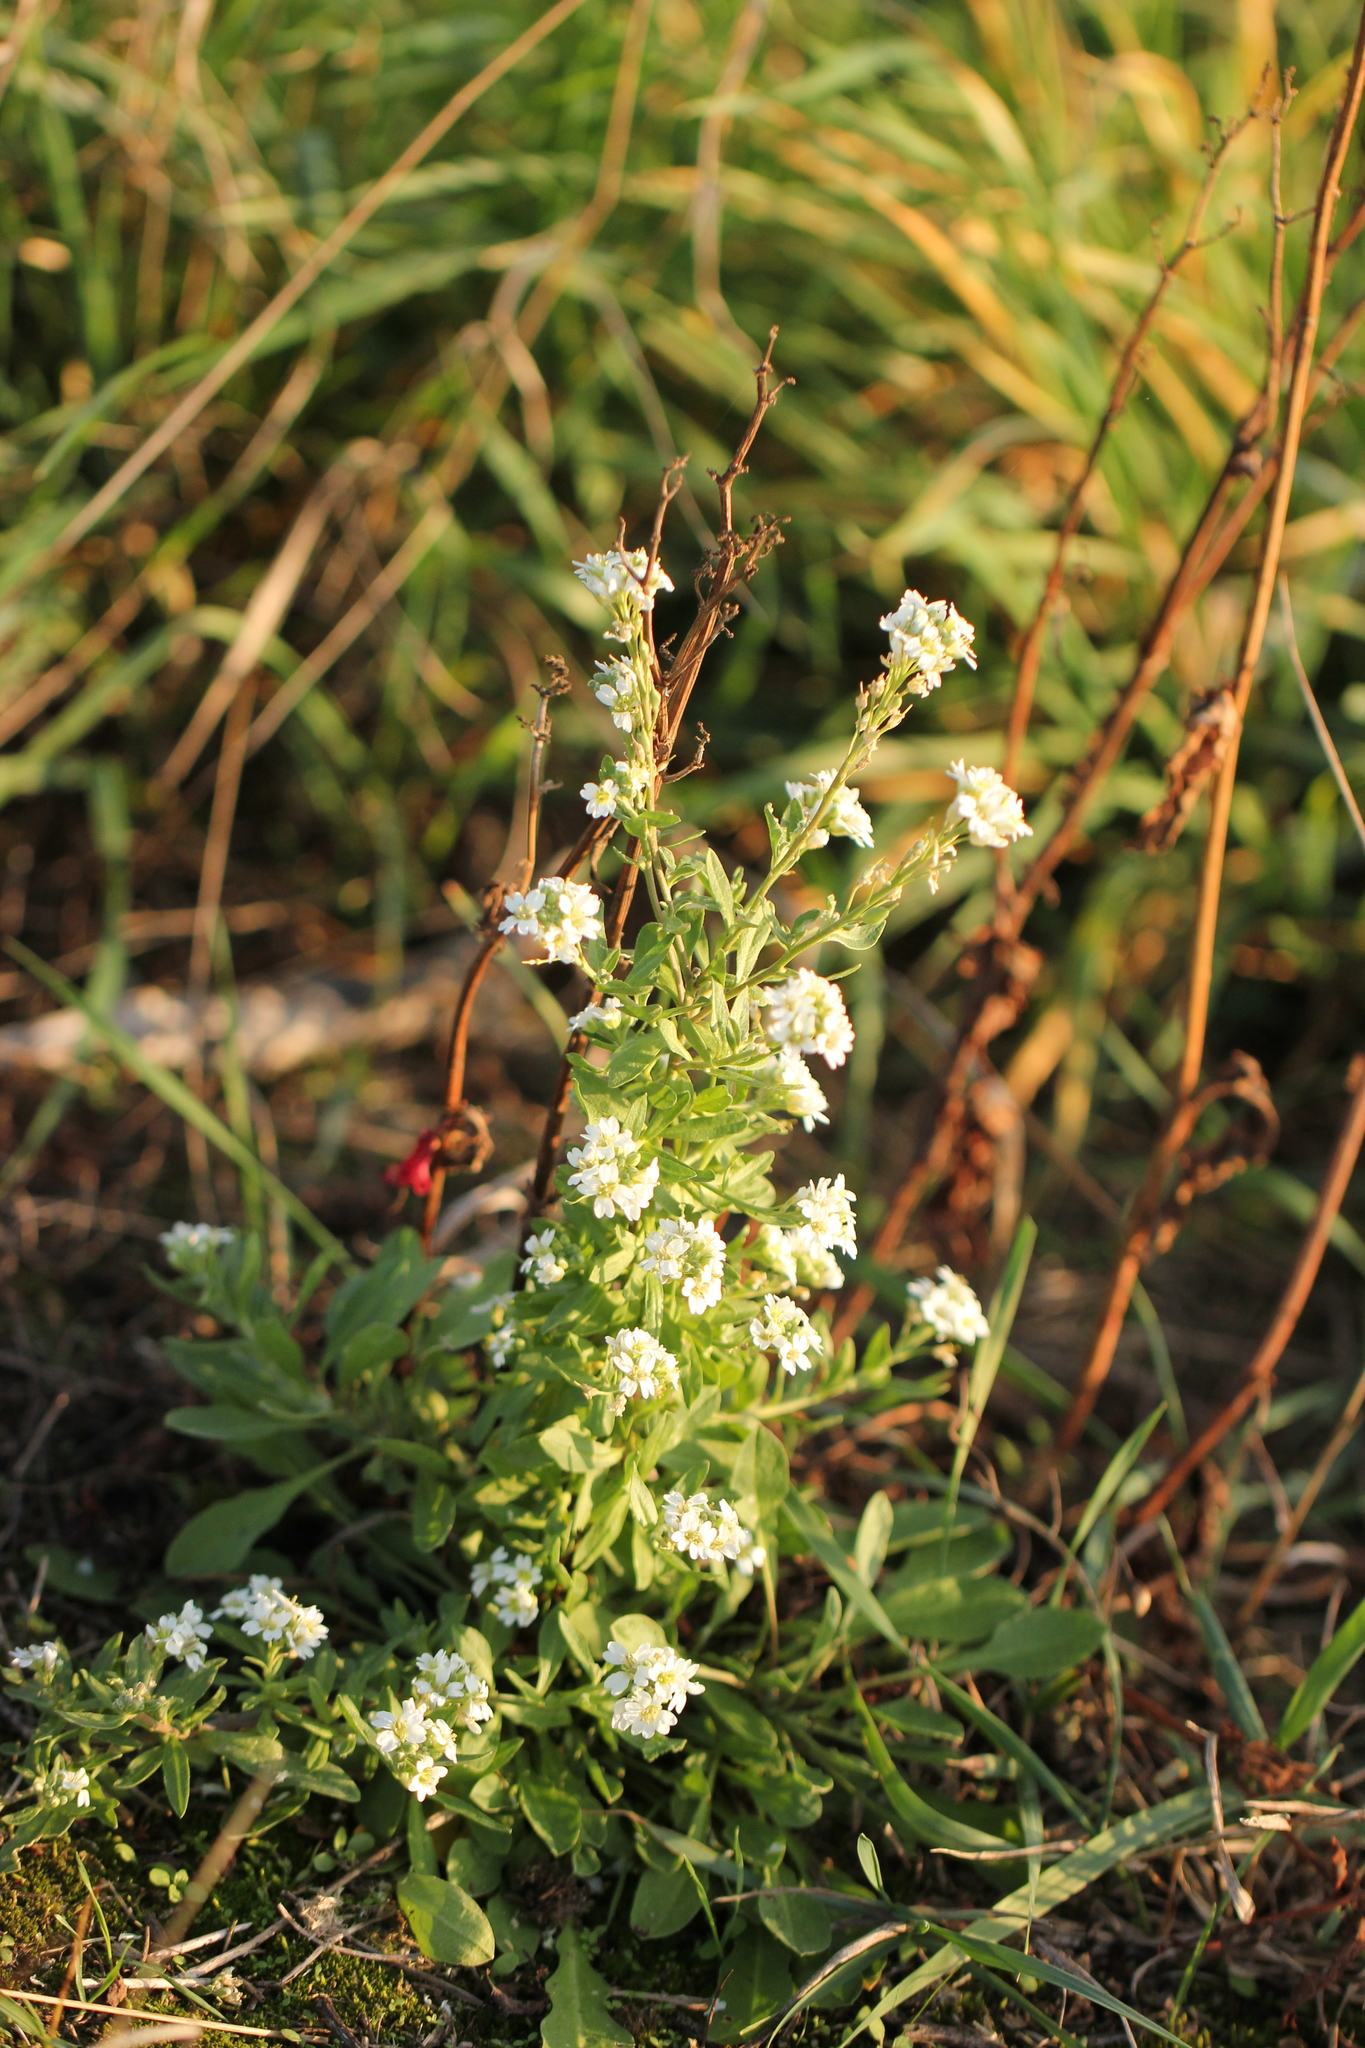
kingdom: Plantae
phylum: Tracheophyta
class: Magnoliopsida
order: Brassicales
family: Brassicaceae
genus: Berteroa
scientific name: Berteroa incana
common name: Hoary alison
